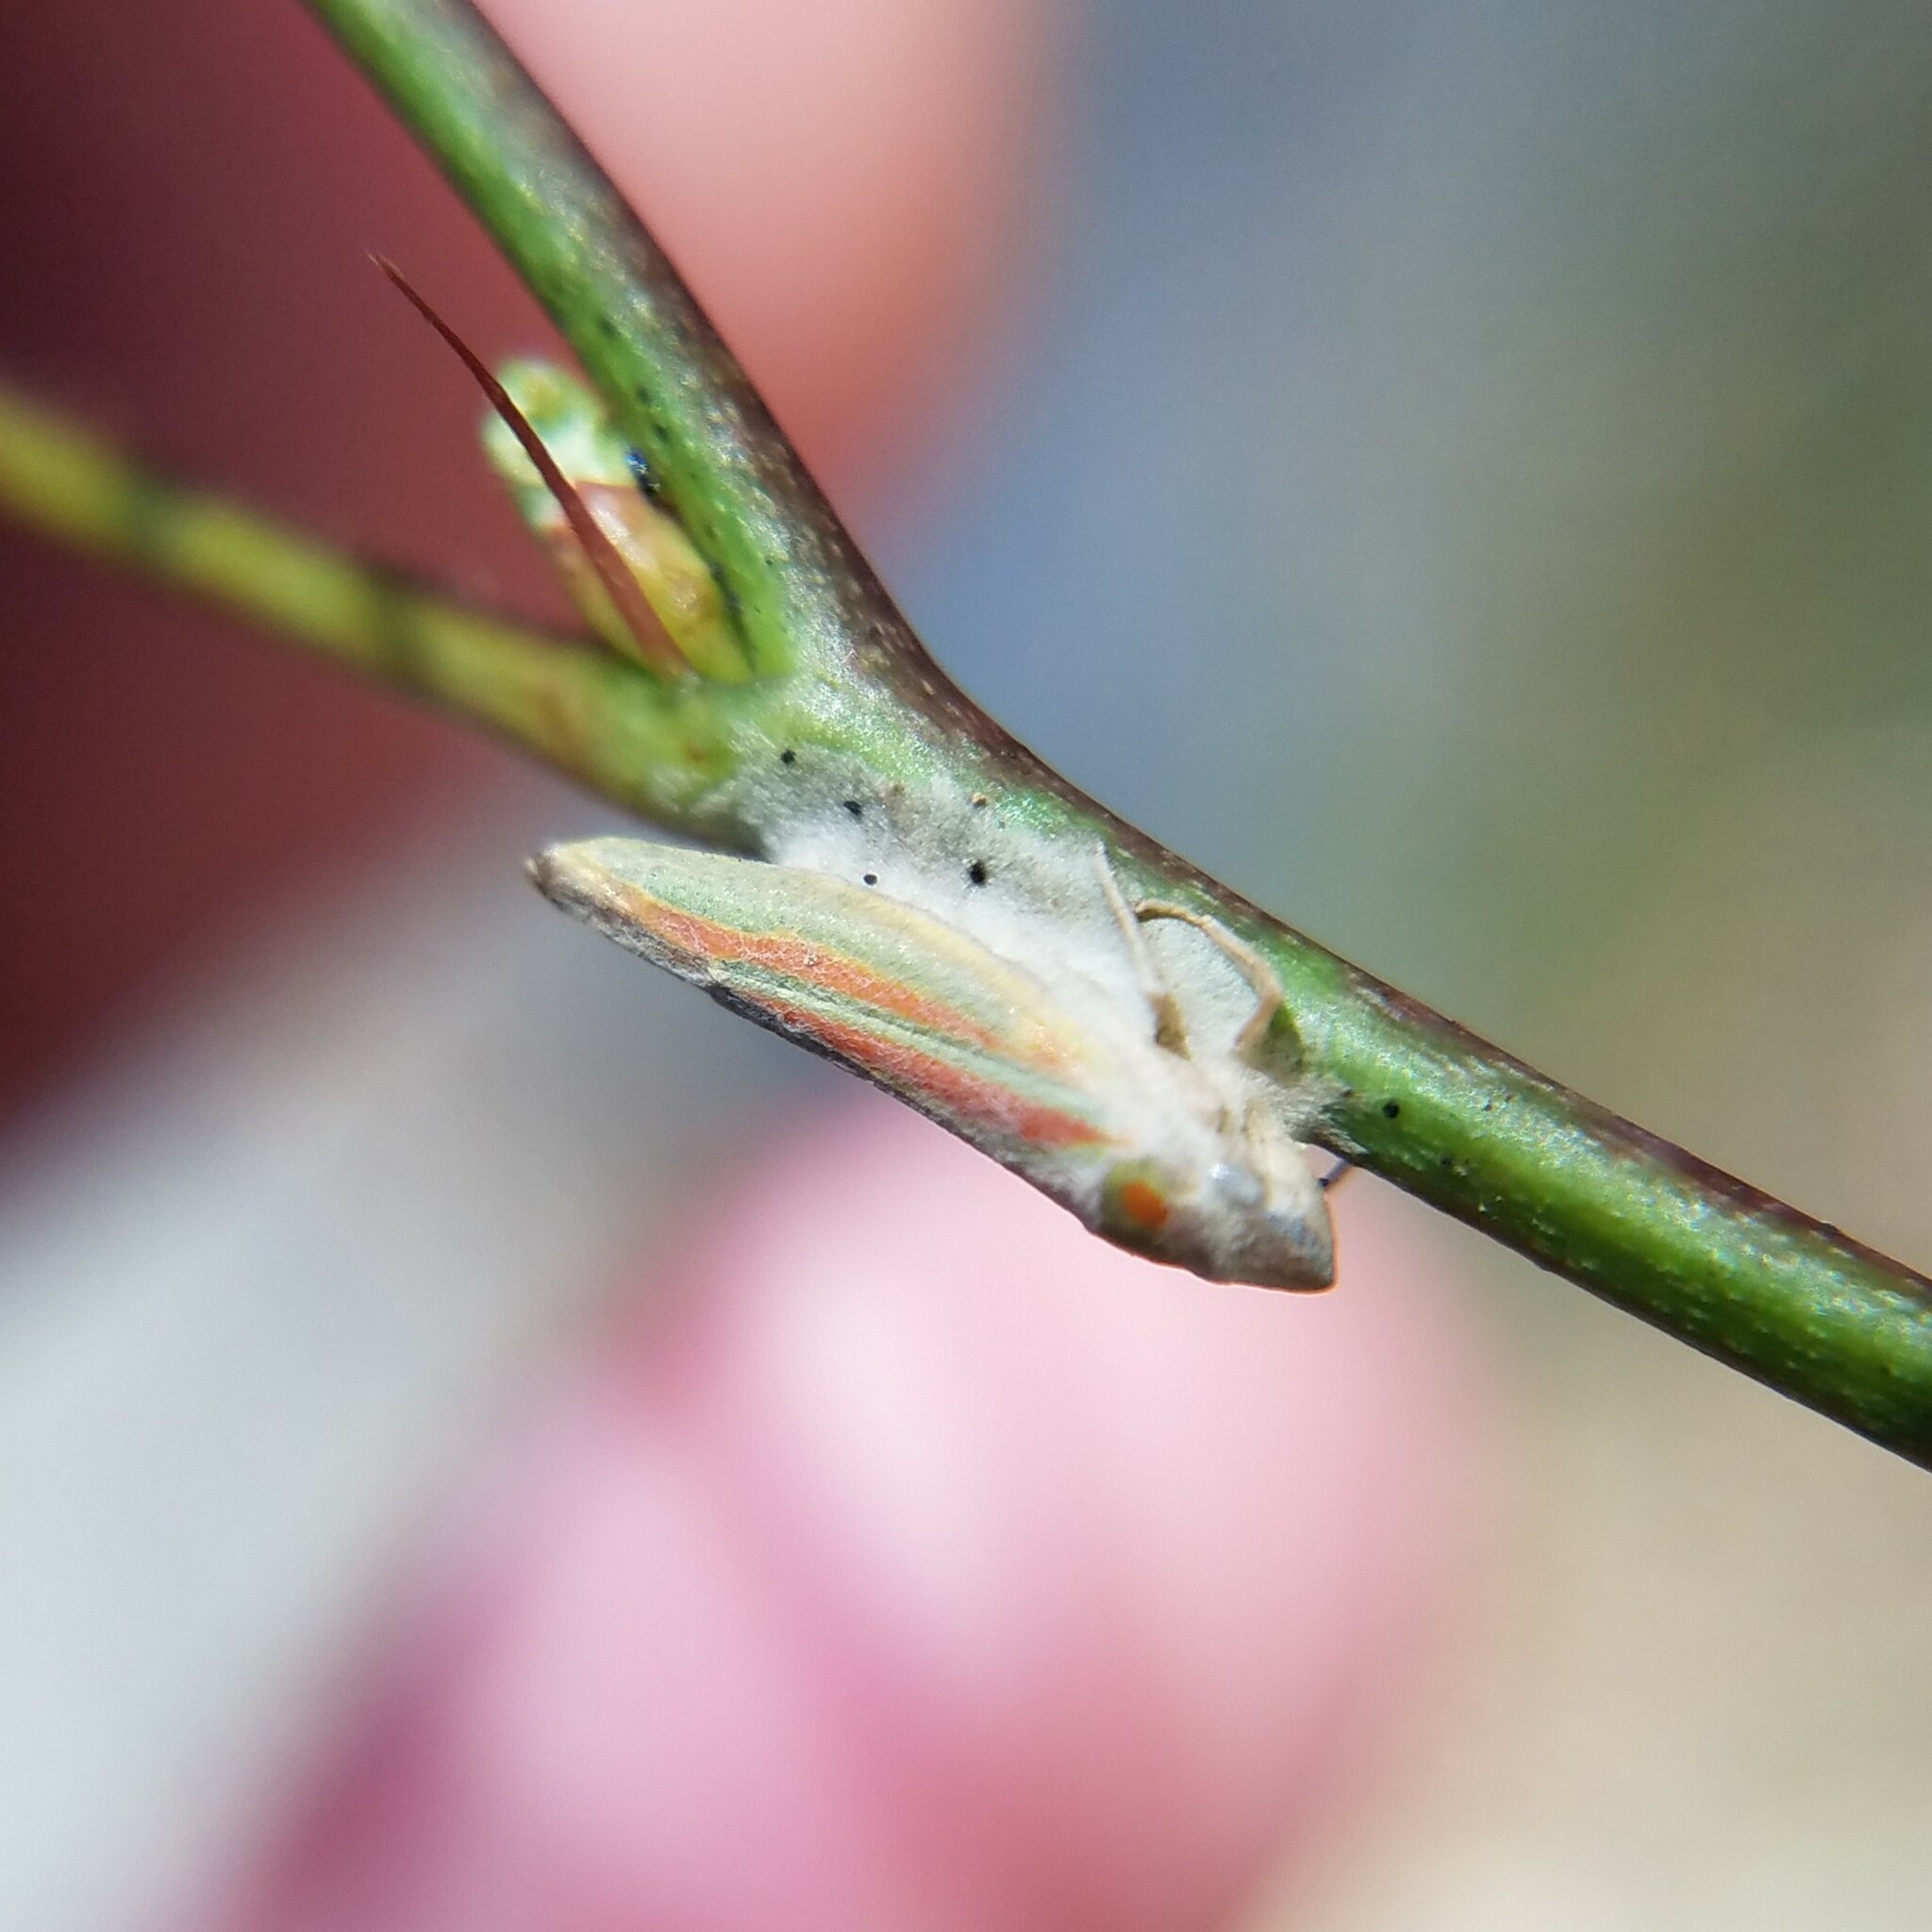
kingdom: Animalia
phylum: Arthropoda
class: Insecta
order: Hemiptera
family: Cicadellidae
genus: Graphocephala
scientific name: Graphocephala versuta
